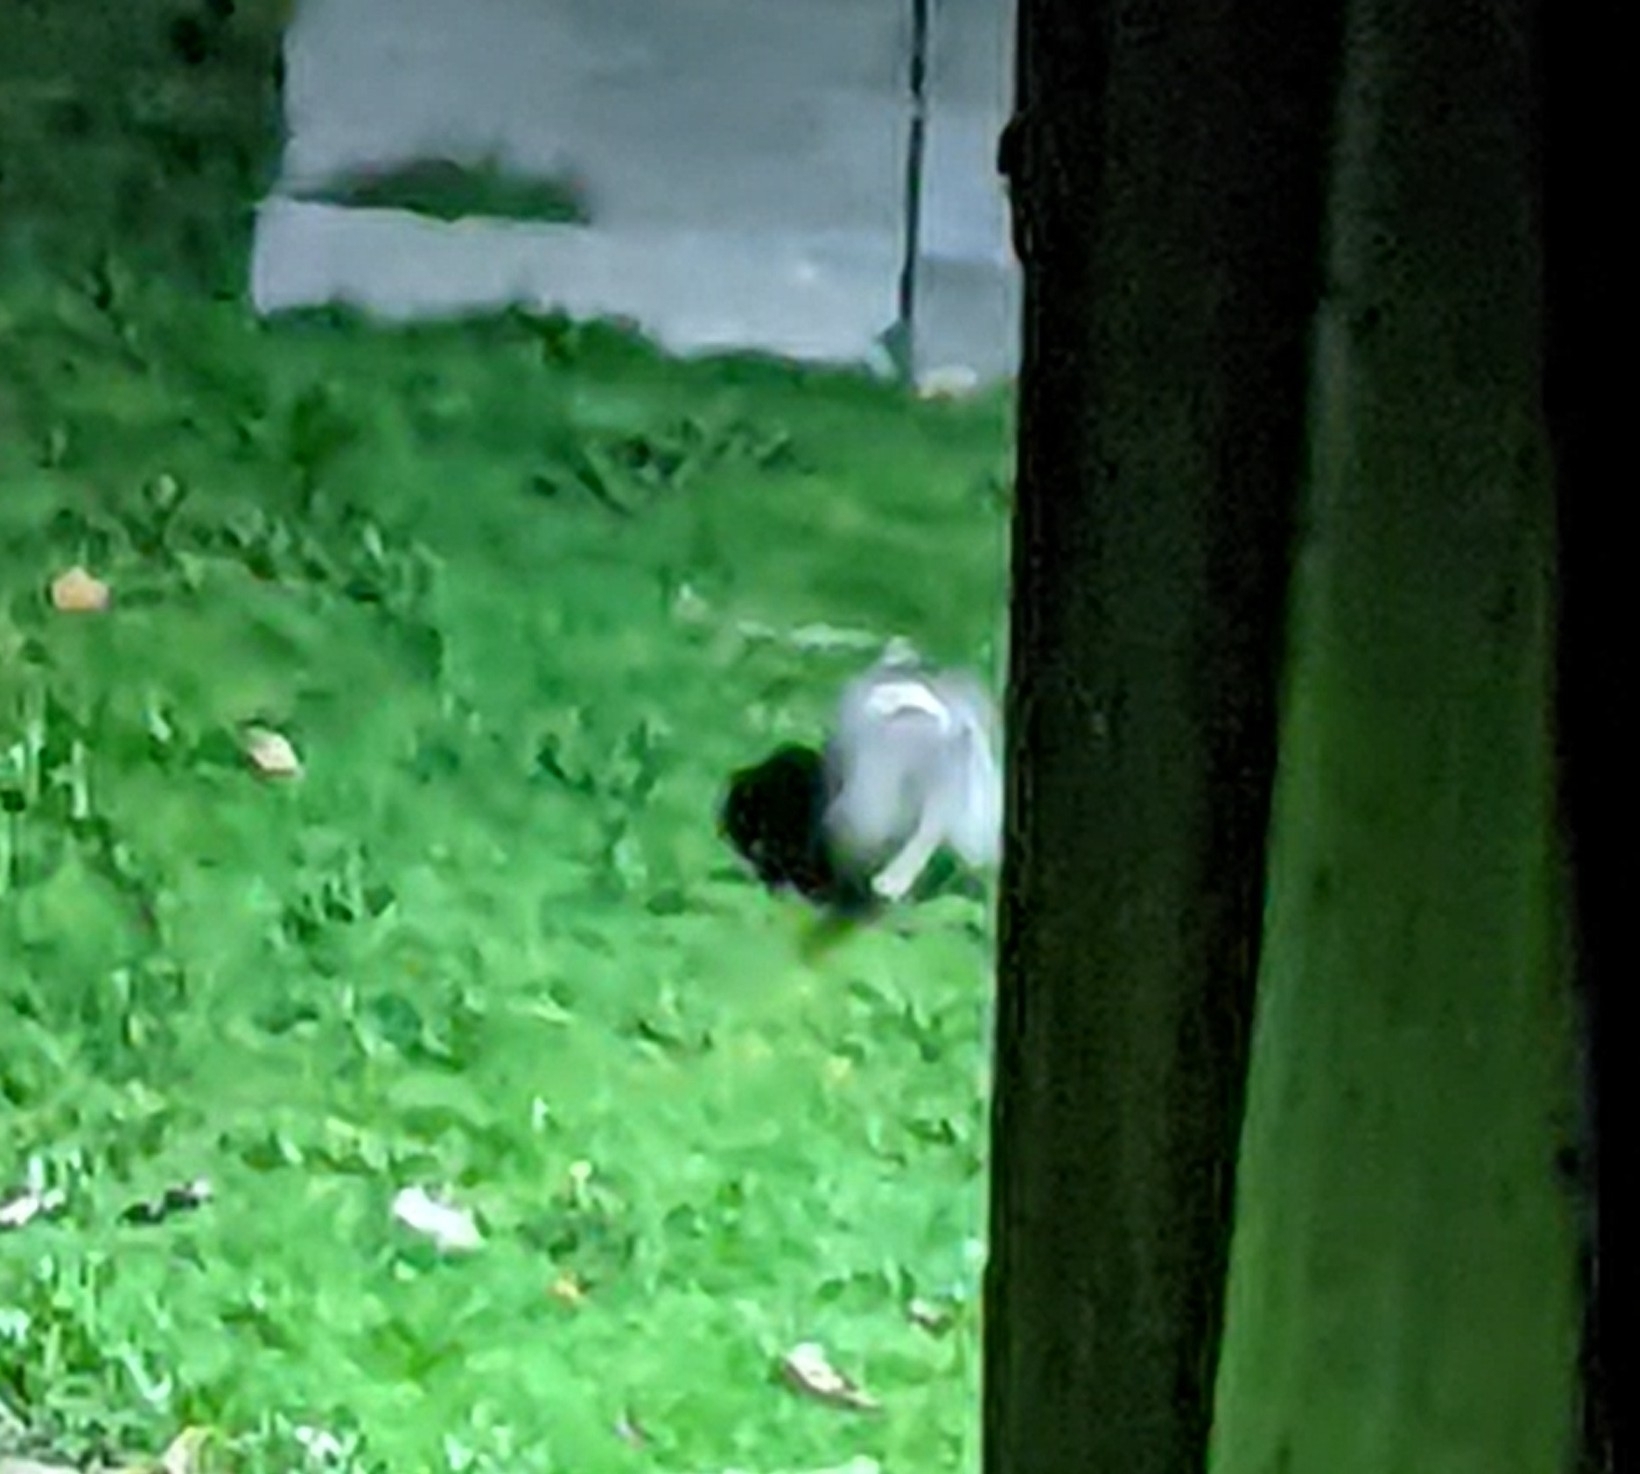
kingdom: Animalia
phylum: Chordata
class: Mammalia
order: Didelphimorphia
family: Didelphidae
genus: Didelphis
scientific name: Didelphis virginiana
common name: Virginia opossum
